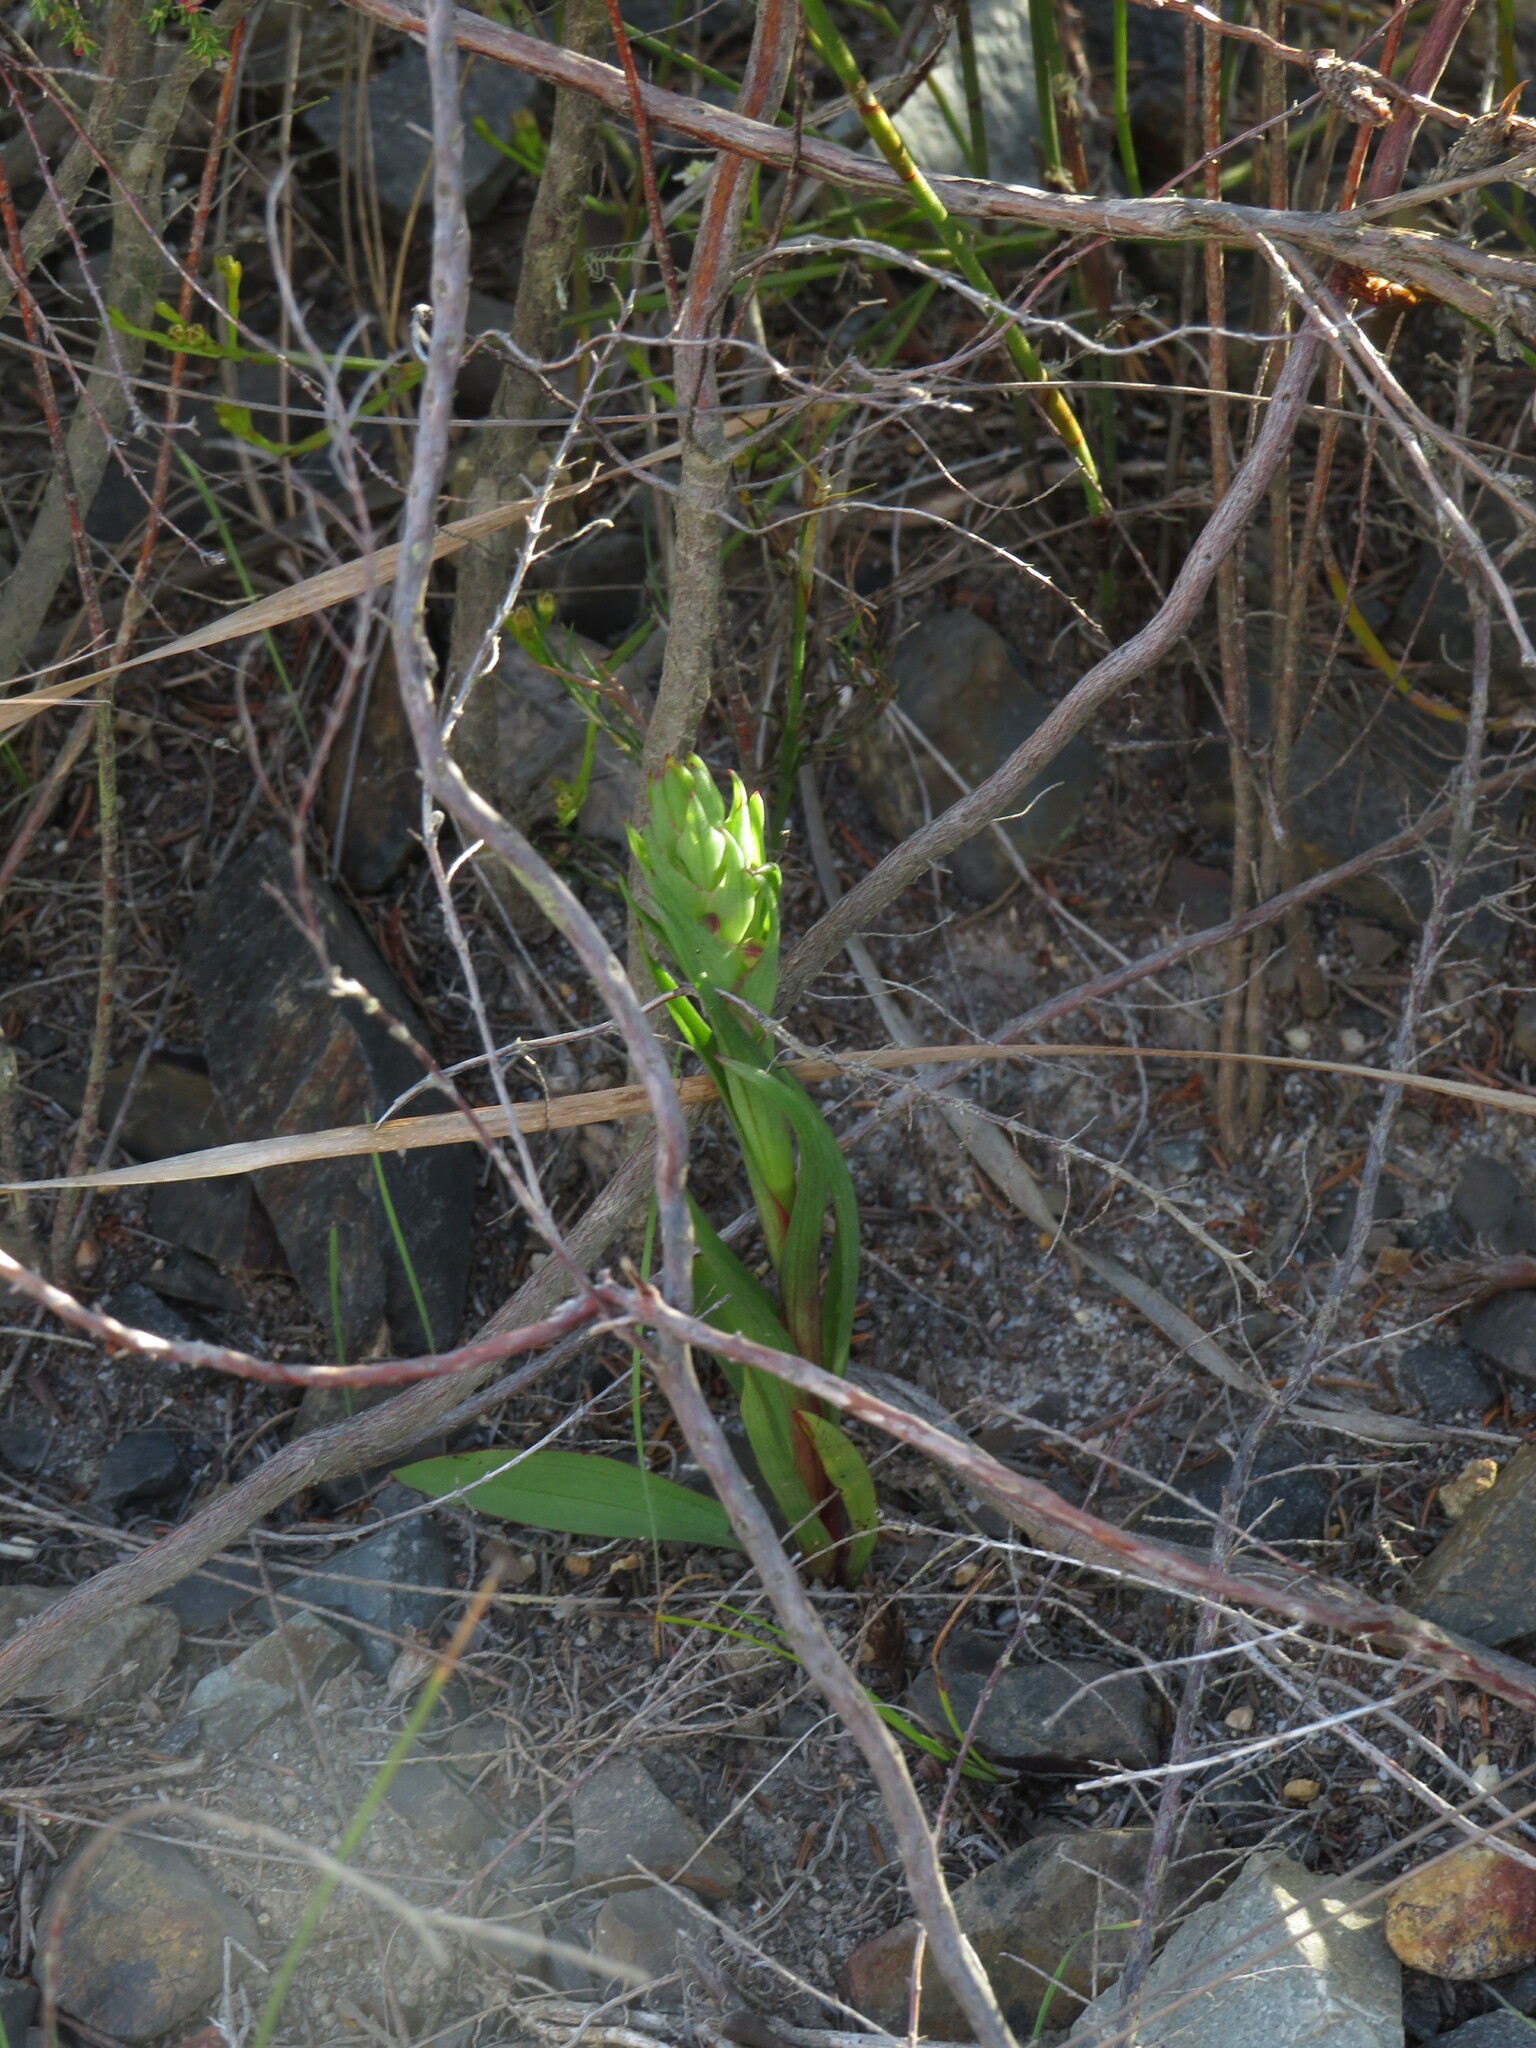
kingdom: Plantae
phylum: Tracheophyta
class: Liliopsida
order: Asparagales
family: Orchidaceae
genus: Disa
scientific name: Disa bracteata
